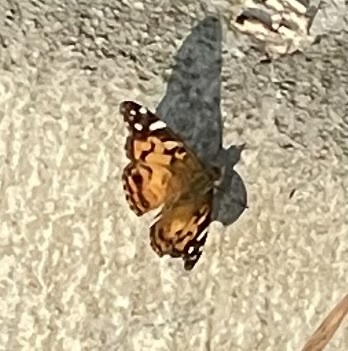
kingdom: Animalia
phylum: Arthropoda
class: Insecta
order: Lepidoptera
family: Nymphalidae
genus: Vanessa
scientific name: Vanessa virginiensis
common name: American lady
